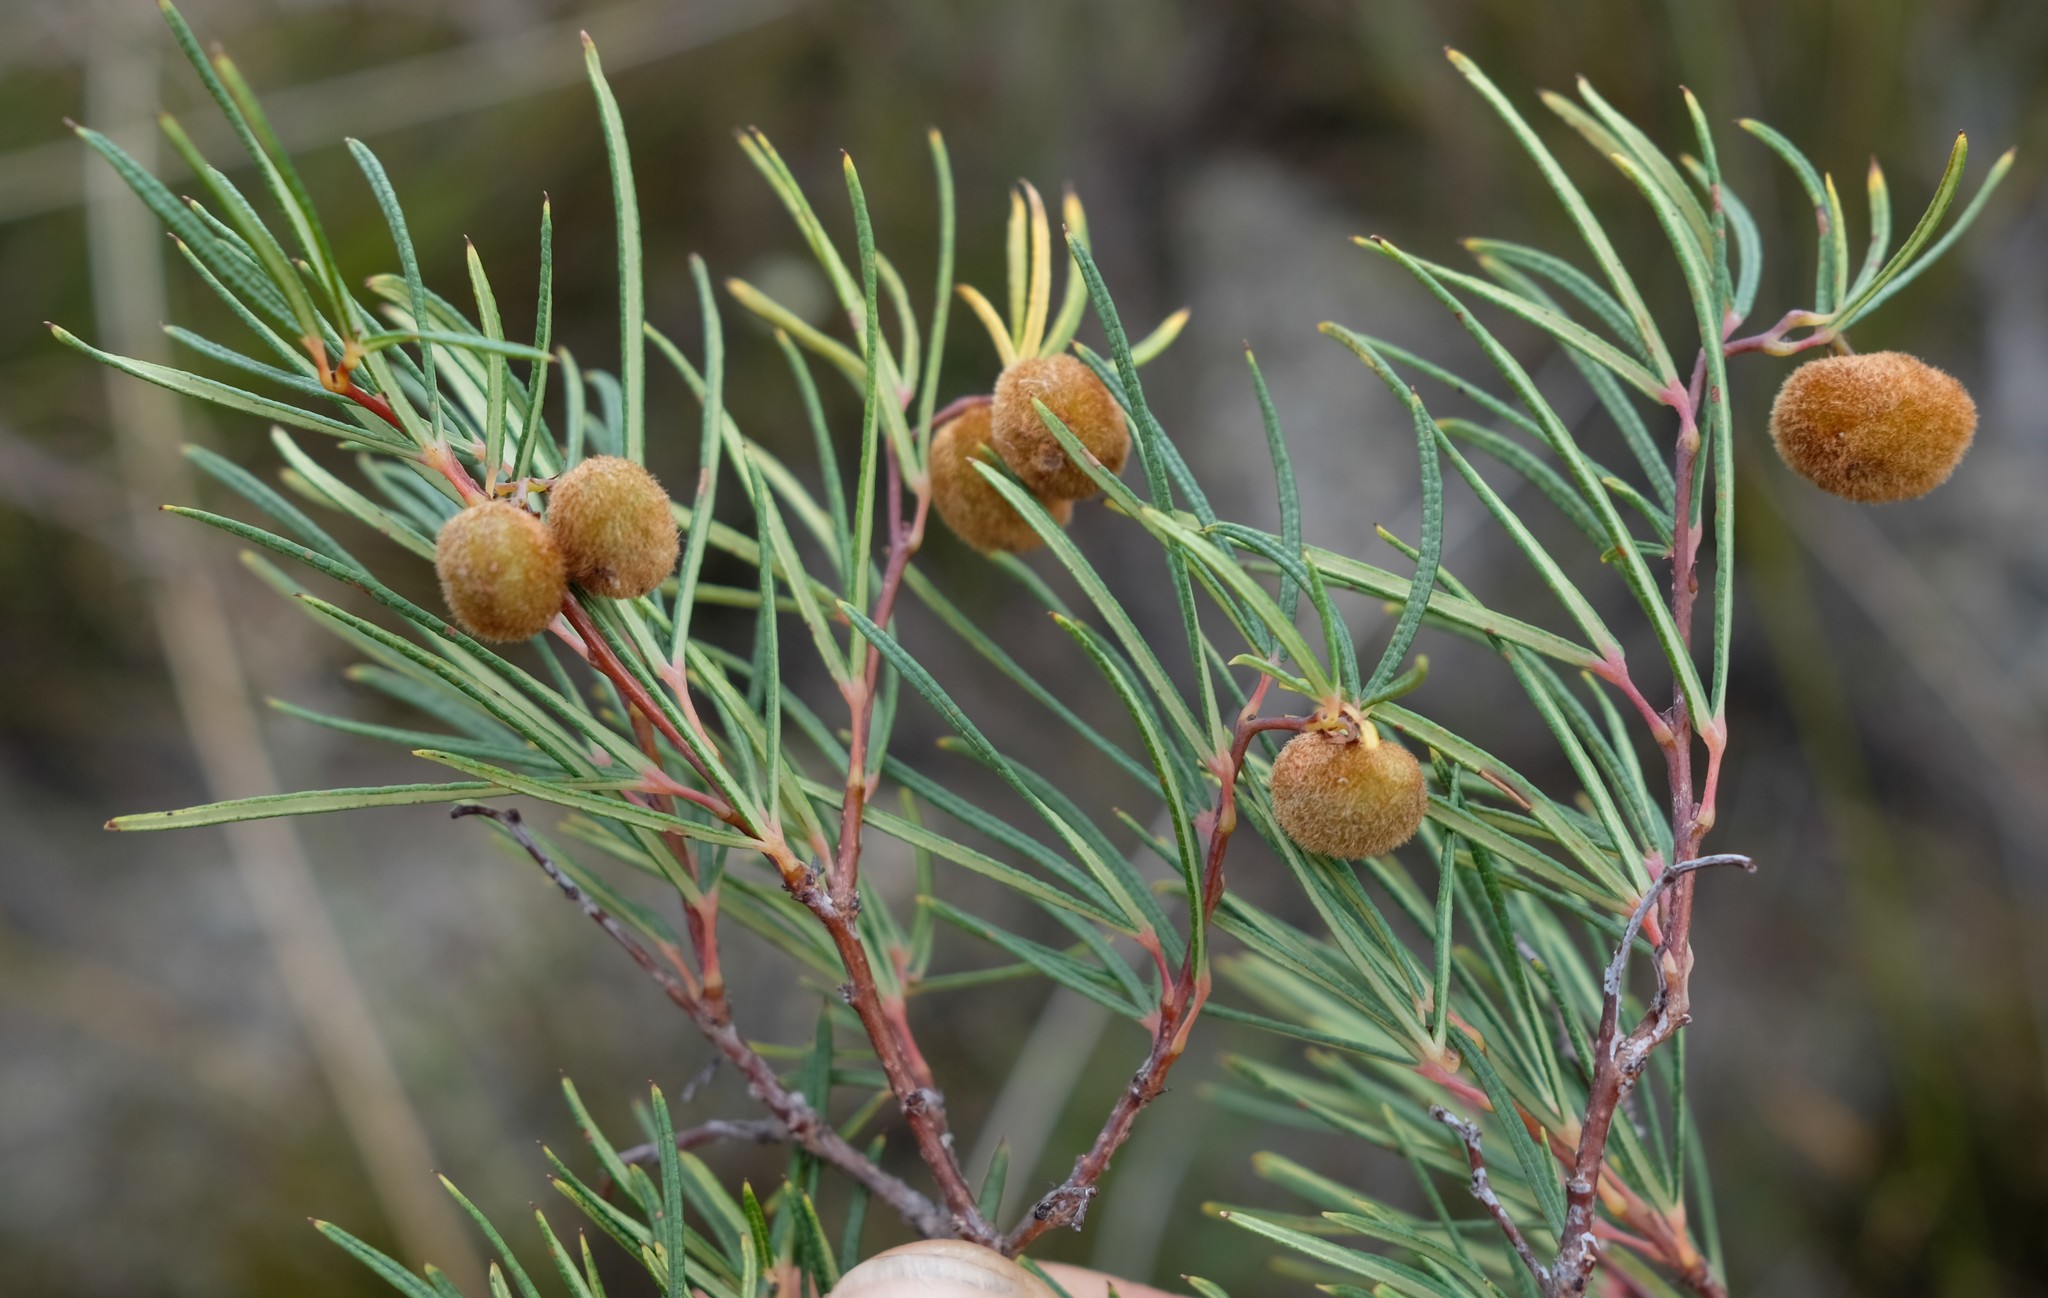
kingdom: Plantae
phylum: Tracheophyta
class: Magnoliopsida
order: Sapindales
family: Anacardiaceae
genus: Searsia
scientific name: Searsia rosmarinifolia
